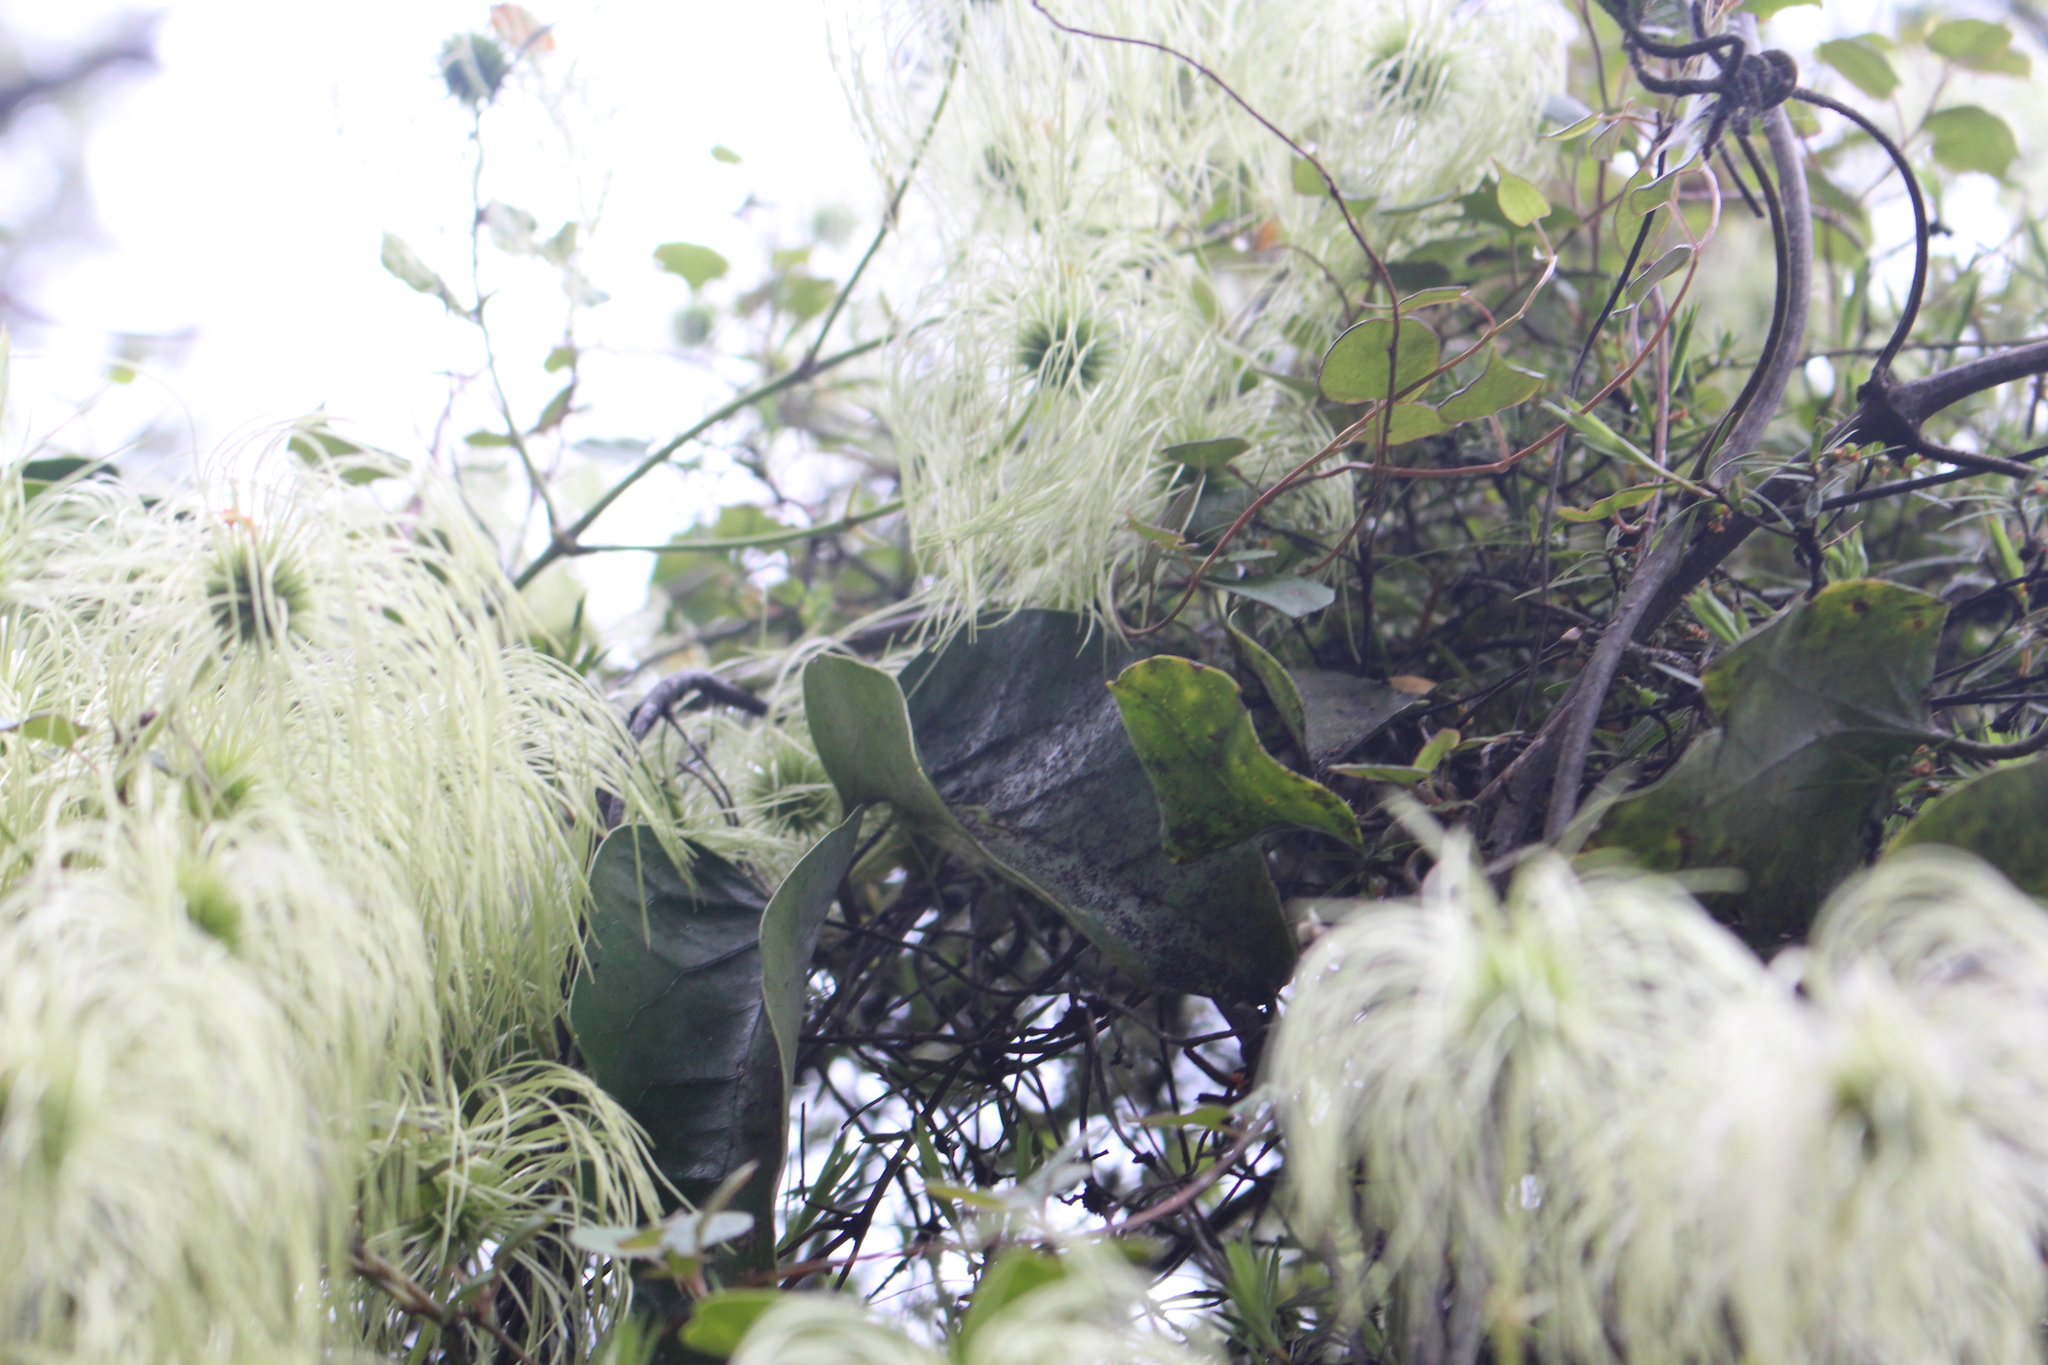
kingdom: Plantae
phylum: Tracheophyta
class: Magnoliopsida
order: Ranunculales
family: Ranunculaceae
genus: Clematis
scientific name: Clematis paniculata
